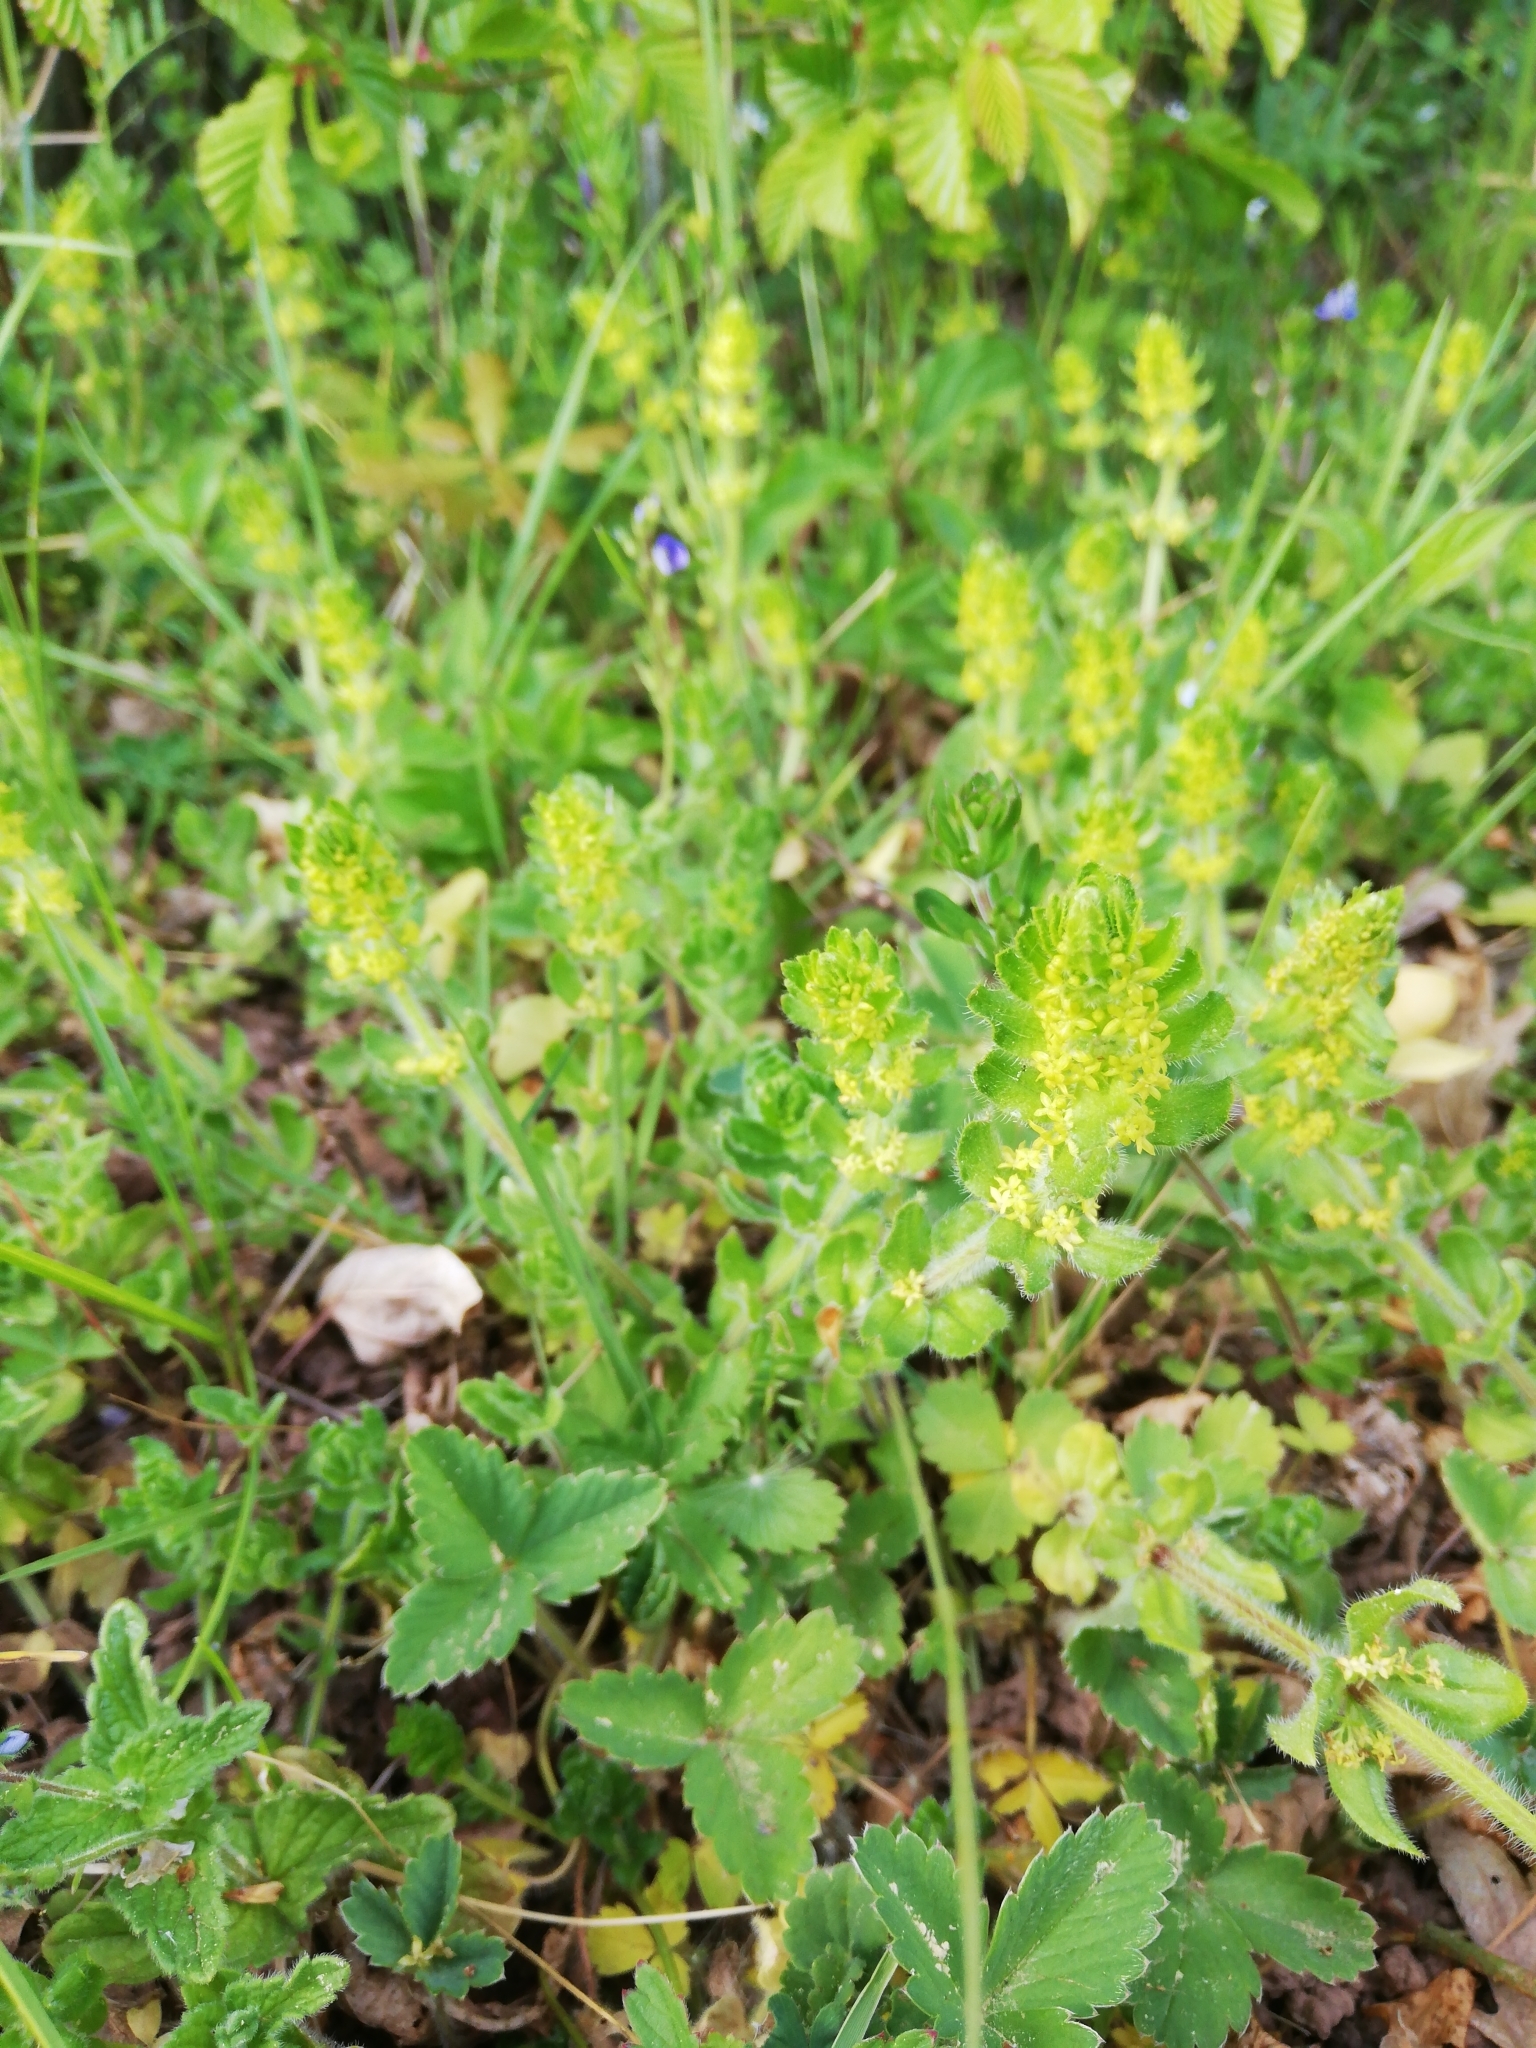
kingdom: Plantae
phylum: Tracheophyta
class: Magnoliopsida
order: Gentianales
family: Rubiaceae
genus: Cruciata
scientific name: Cruciata laevipes
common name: Crosswort
